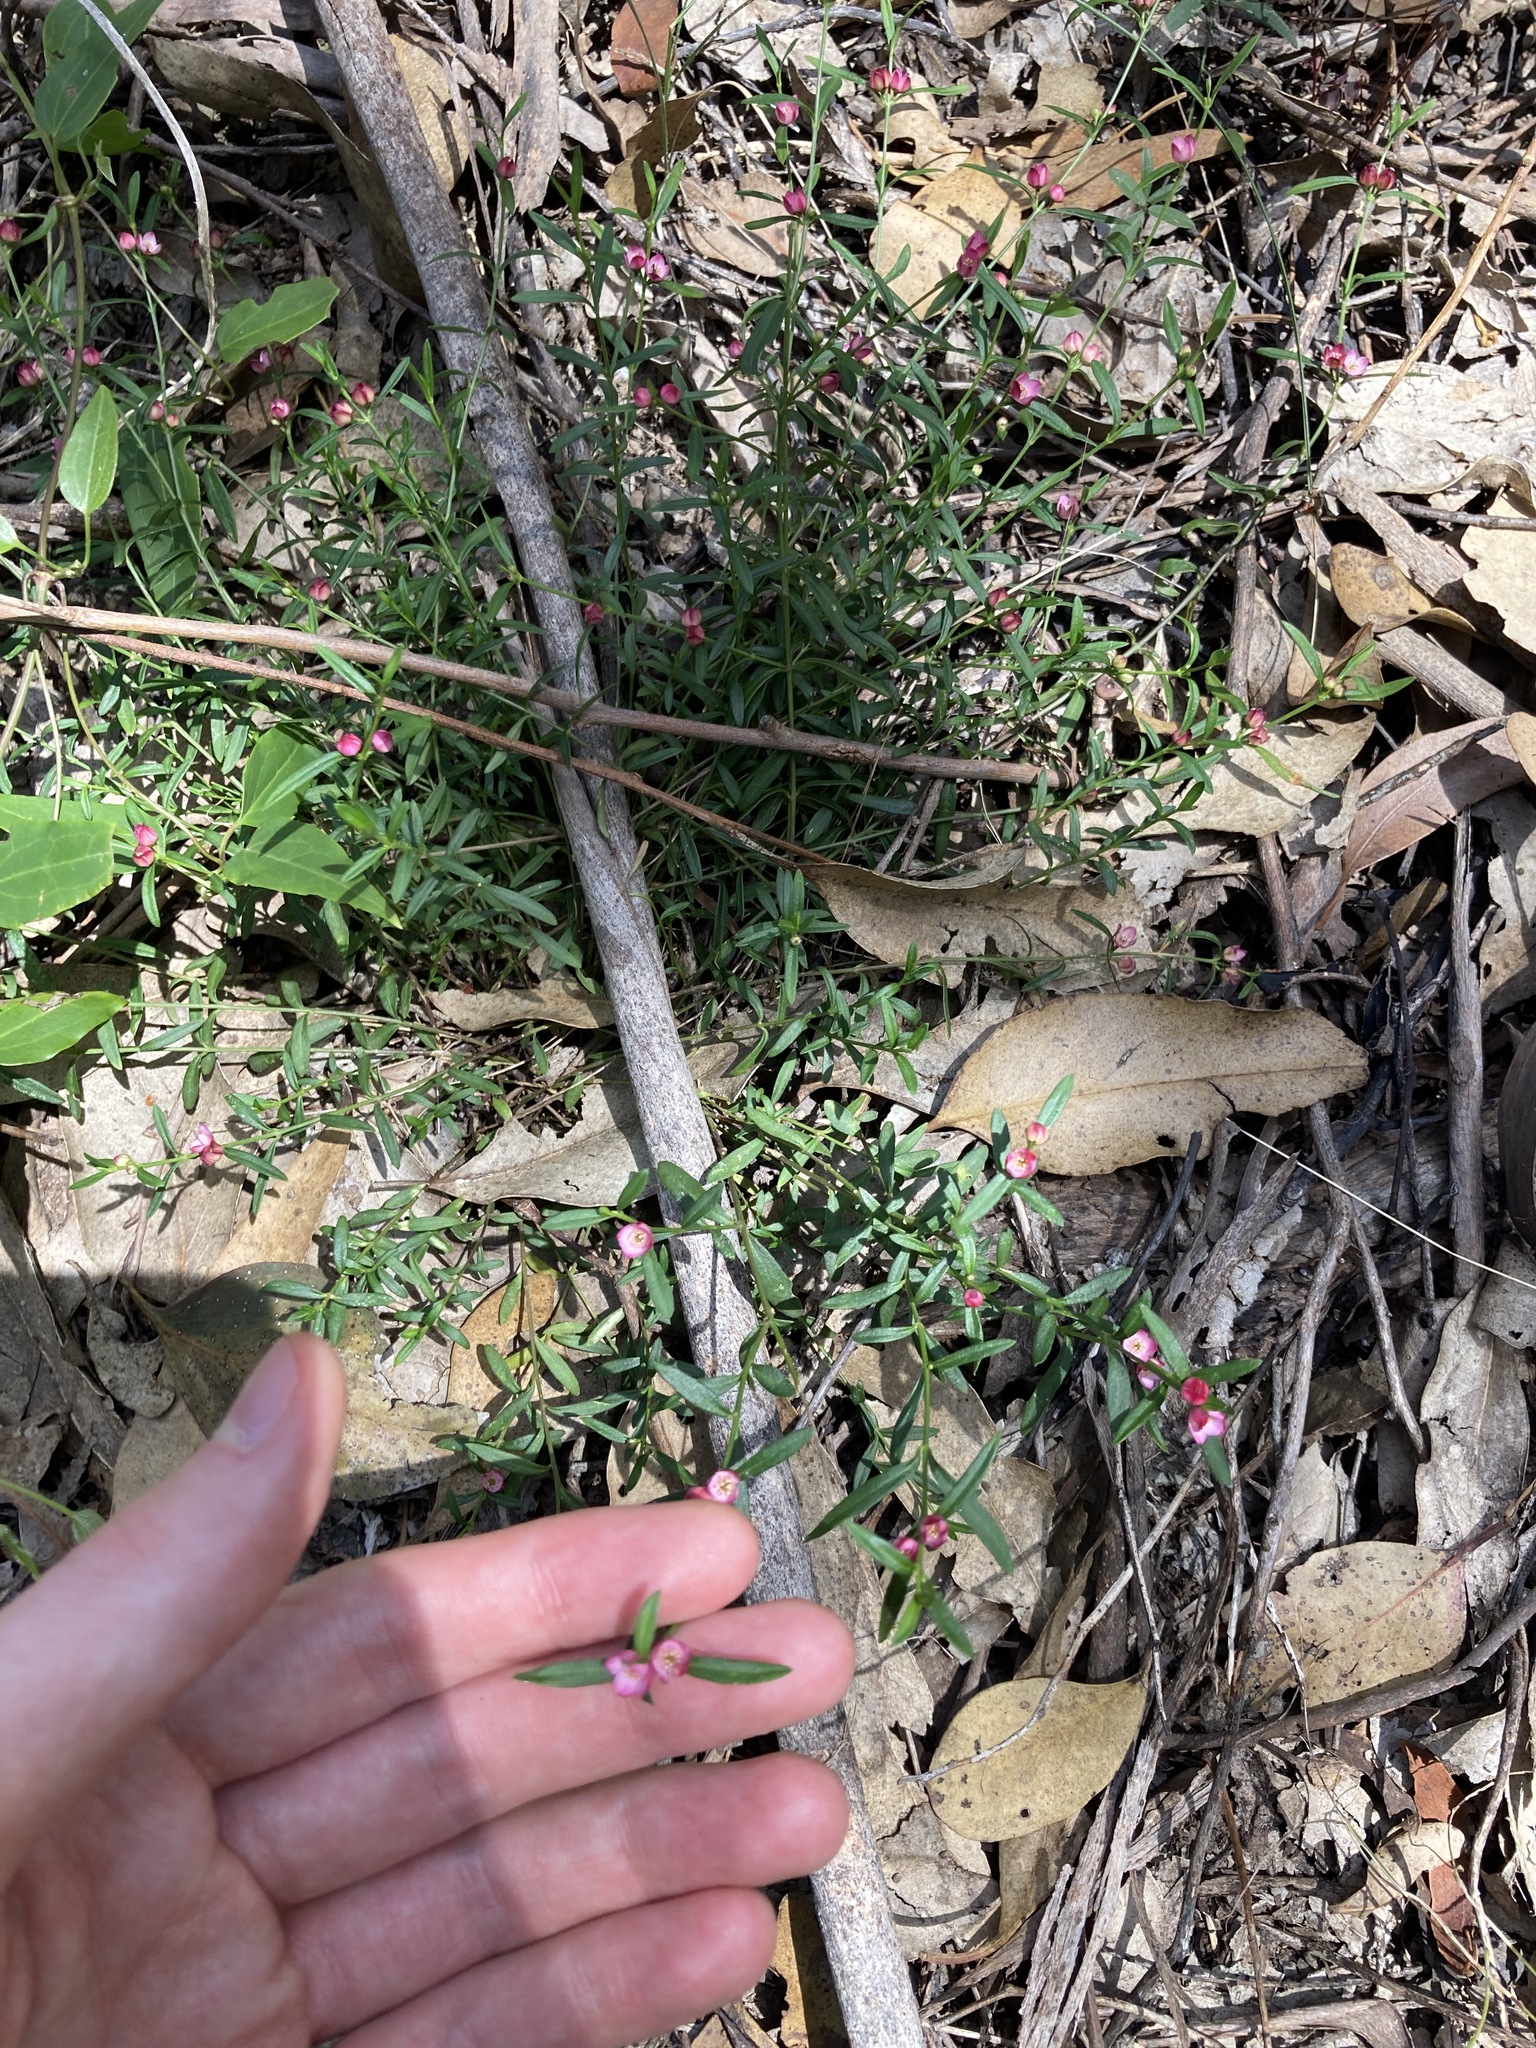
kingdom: Plantae
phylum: Tracheophyta
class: Magnoliopsida
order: Sapindales
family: Rutaceae
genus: Cyanothamnus
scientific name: Cyanothamnus polygalifolius
